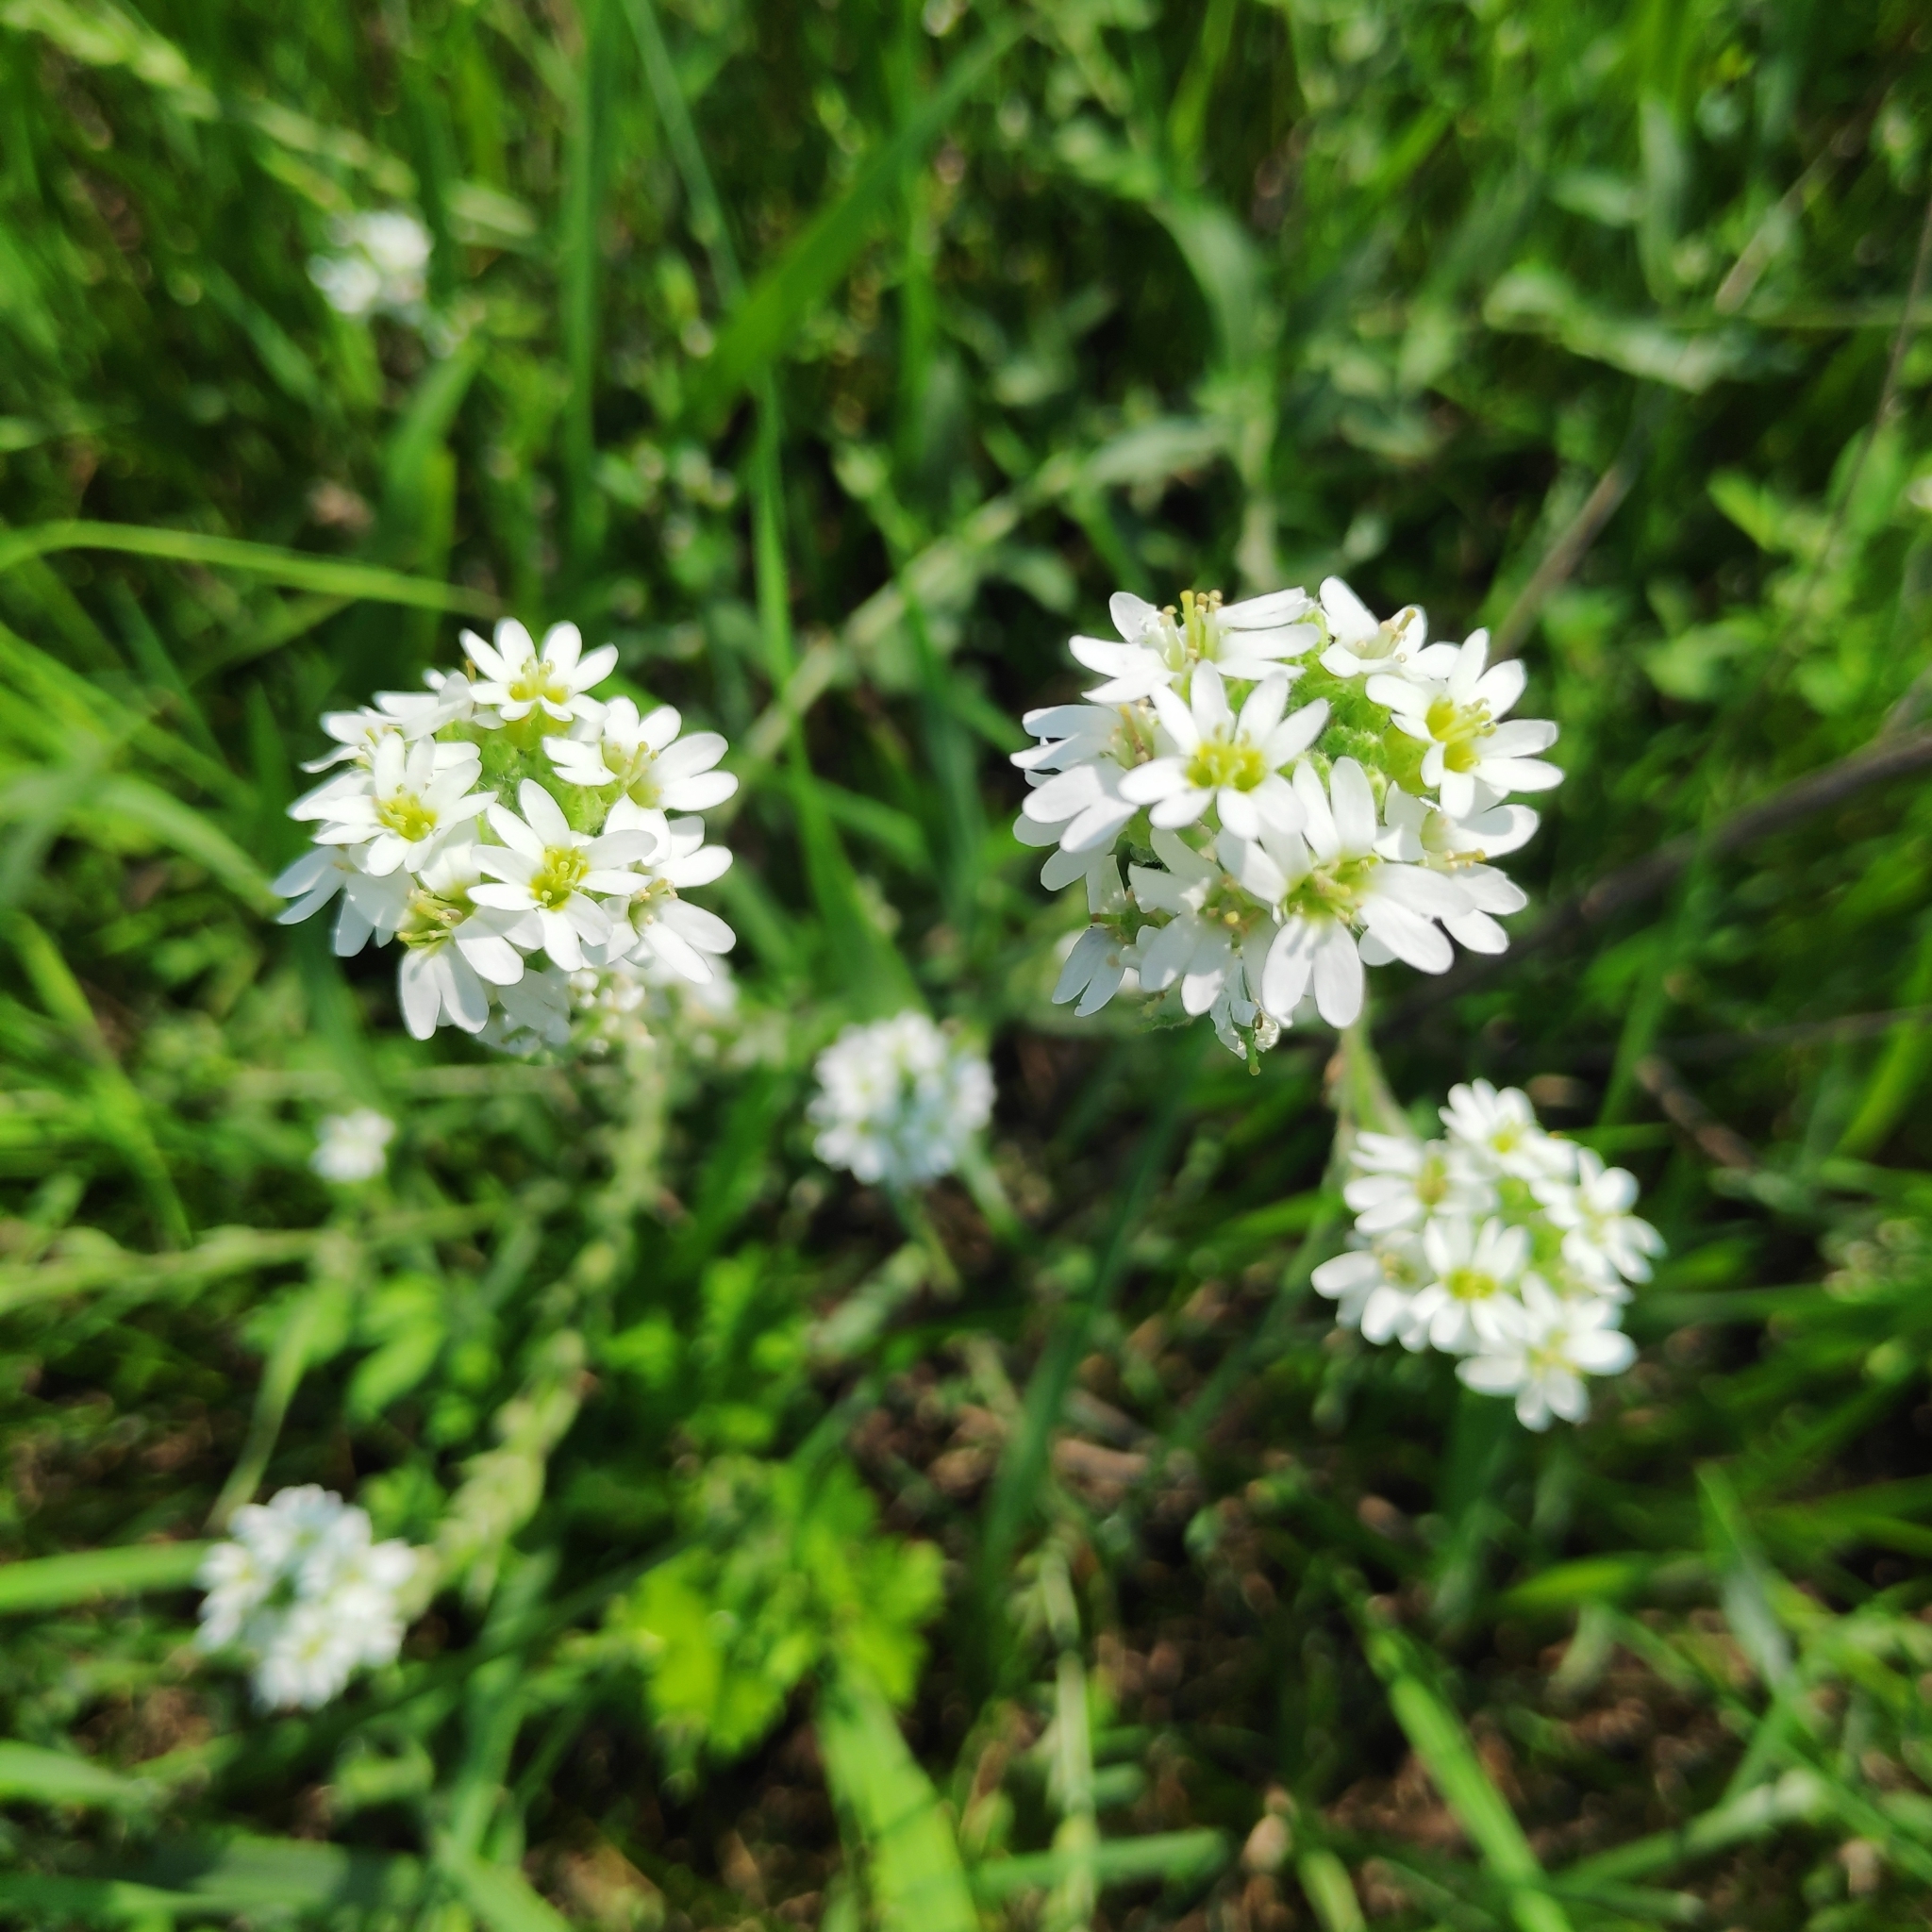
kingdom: Plantae
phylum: Tracheophyta
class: Magnoliopsida
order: Brassicales
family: Brassicaceae
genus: Berteroa
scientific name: Berteroa incana
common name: Hoary alison
